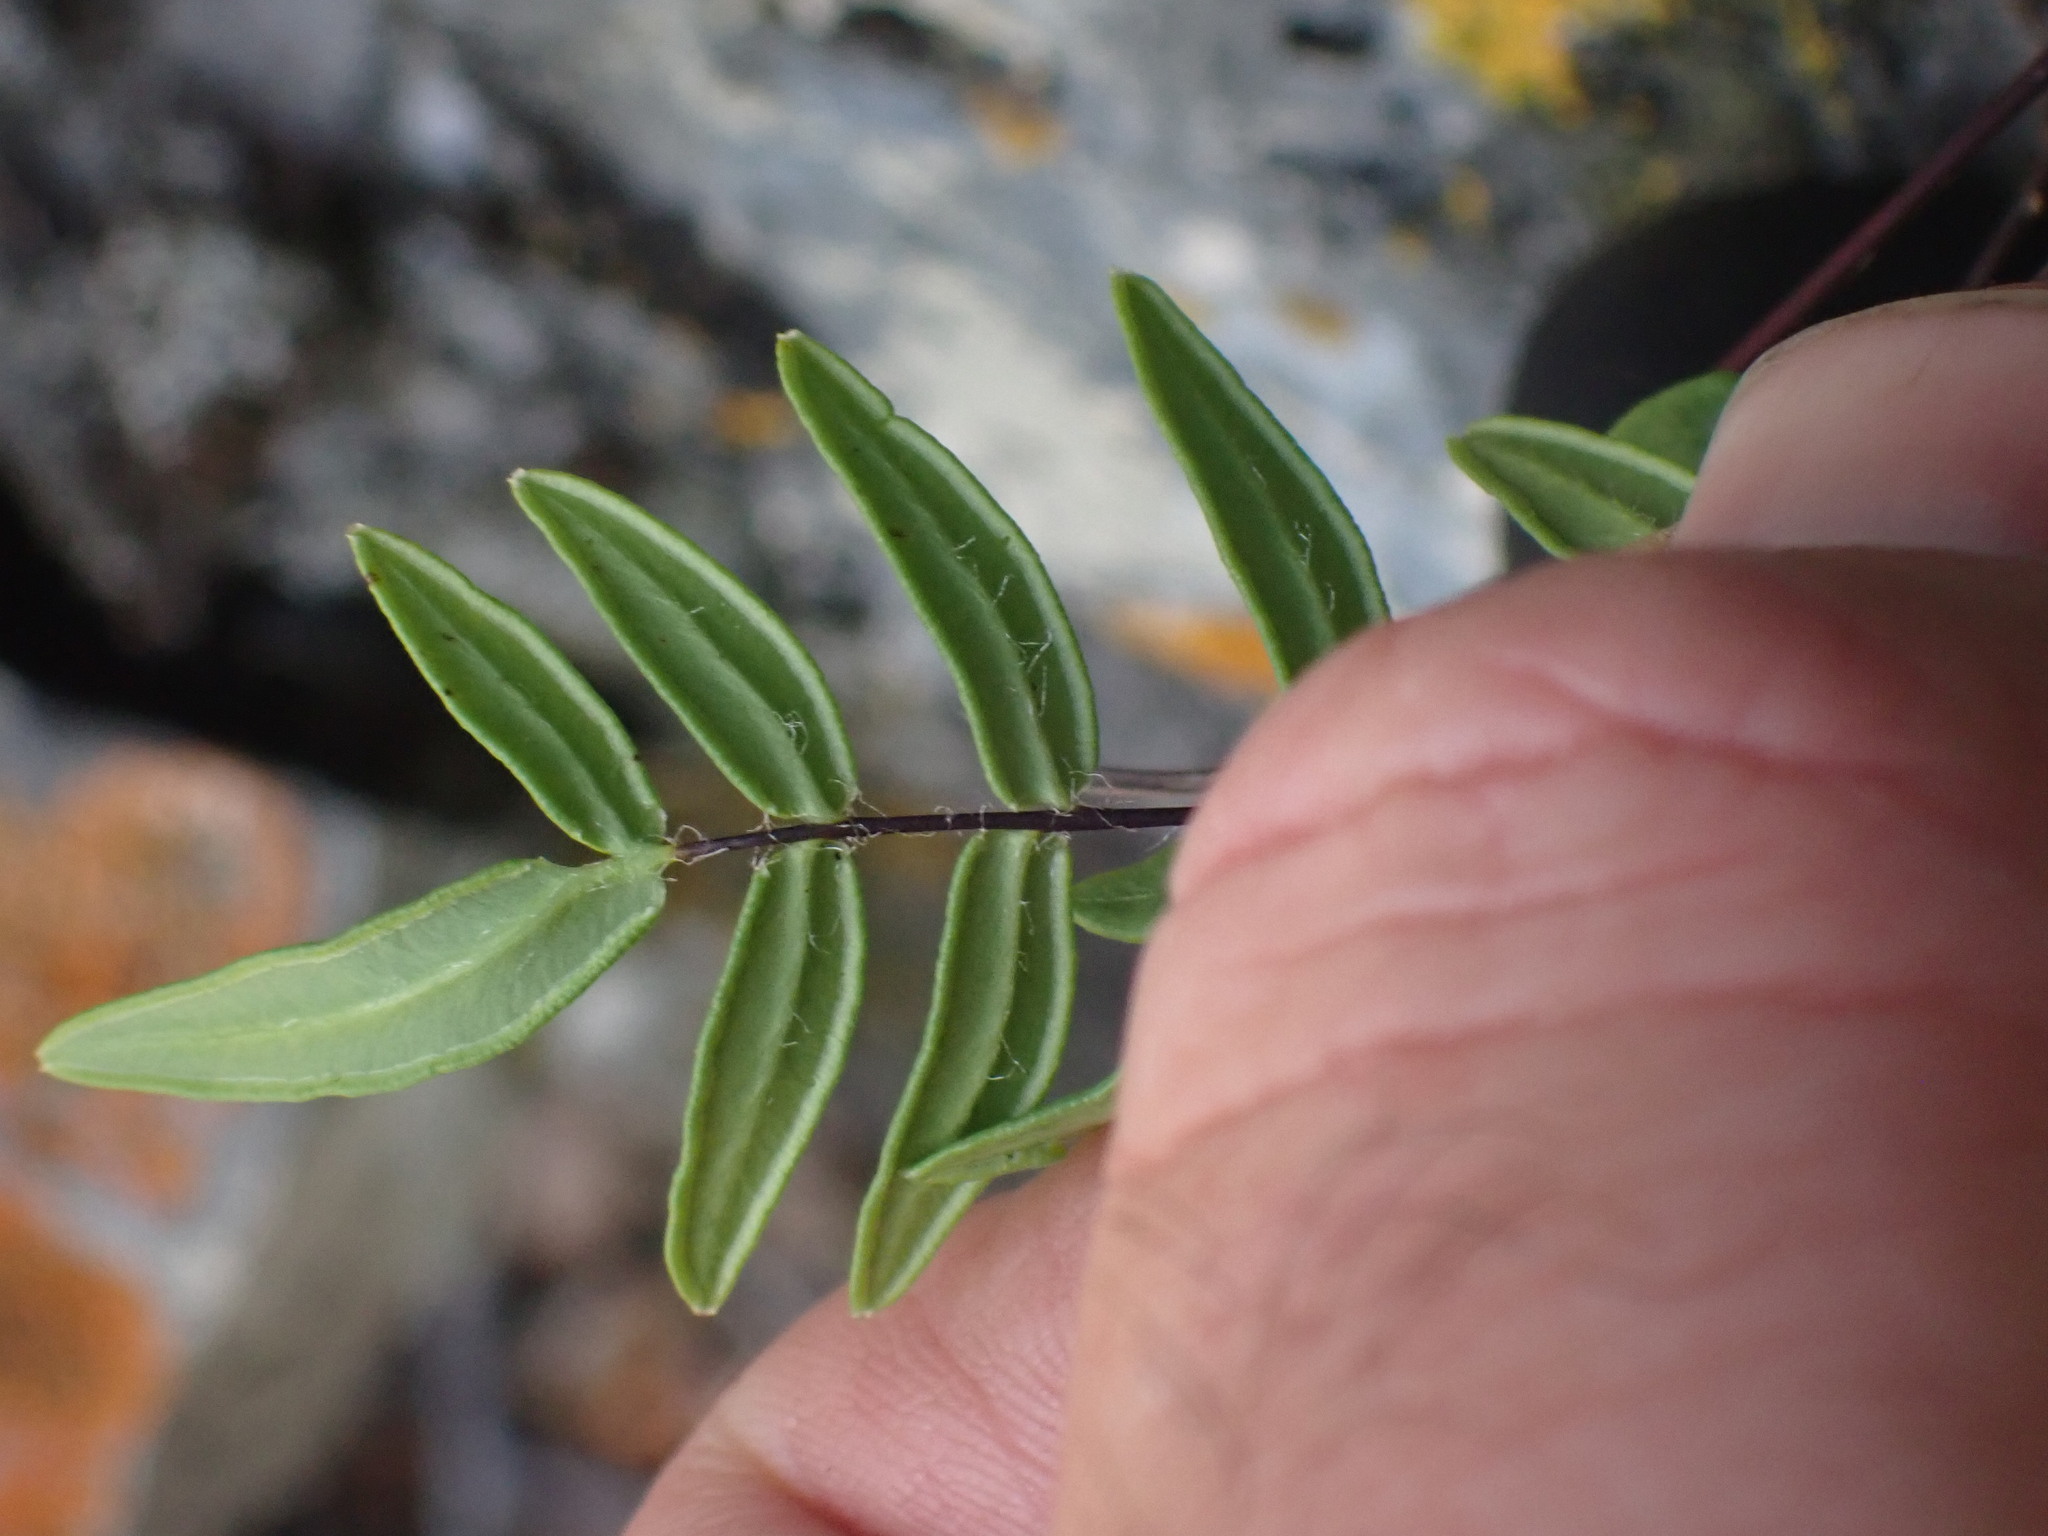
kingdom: Plantae
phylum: Tracheophyta
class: Polypodiopsida
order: Polypodiales
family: Pteridaceae
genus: Pellaea
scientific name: Pellaea gastonyi
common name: Gastony's cliffbrake
